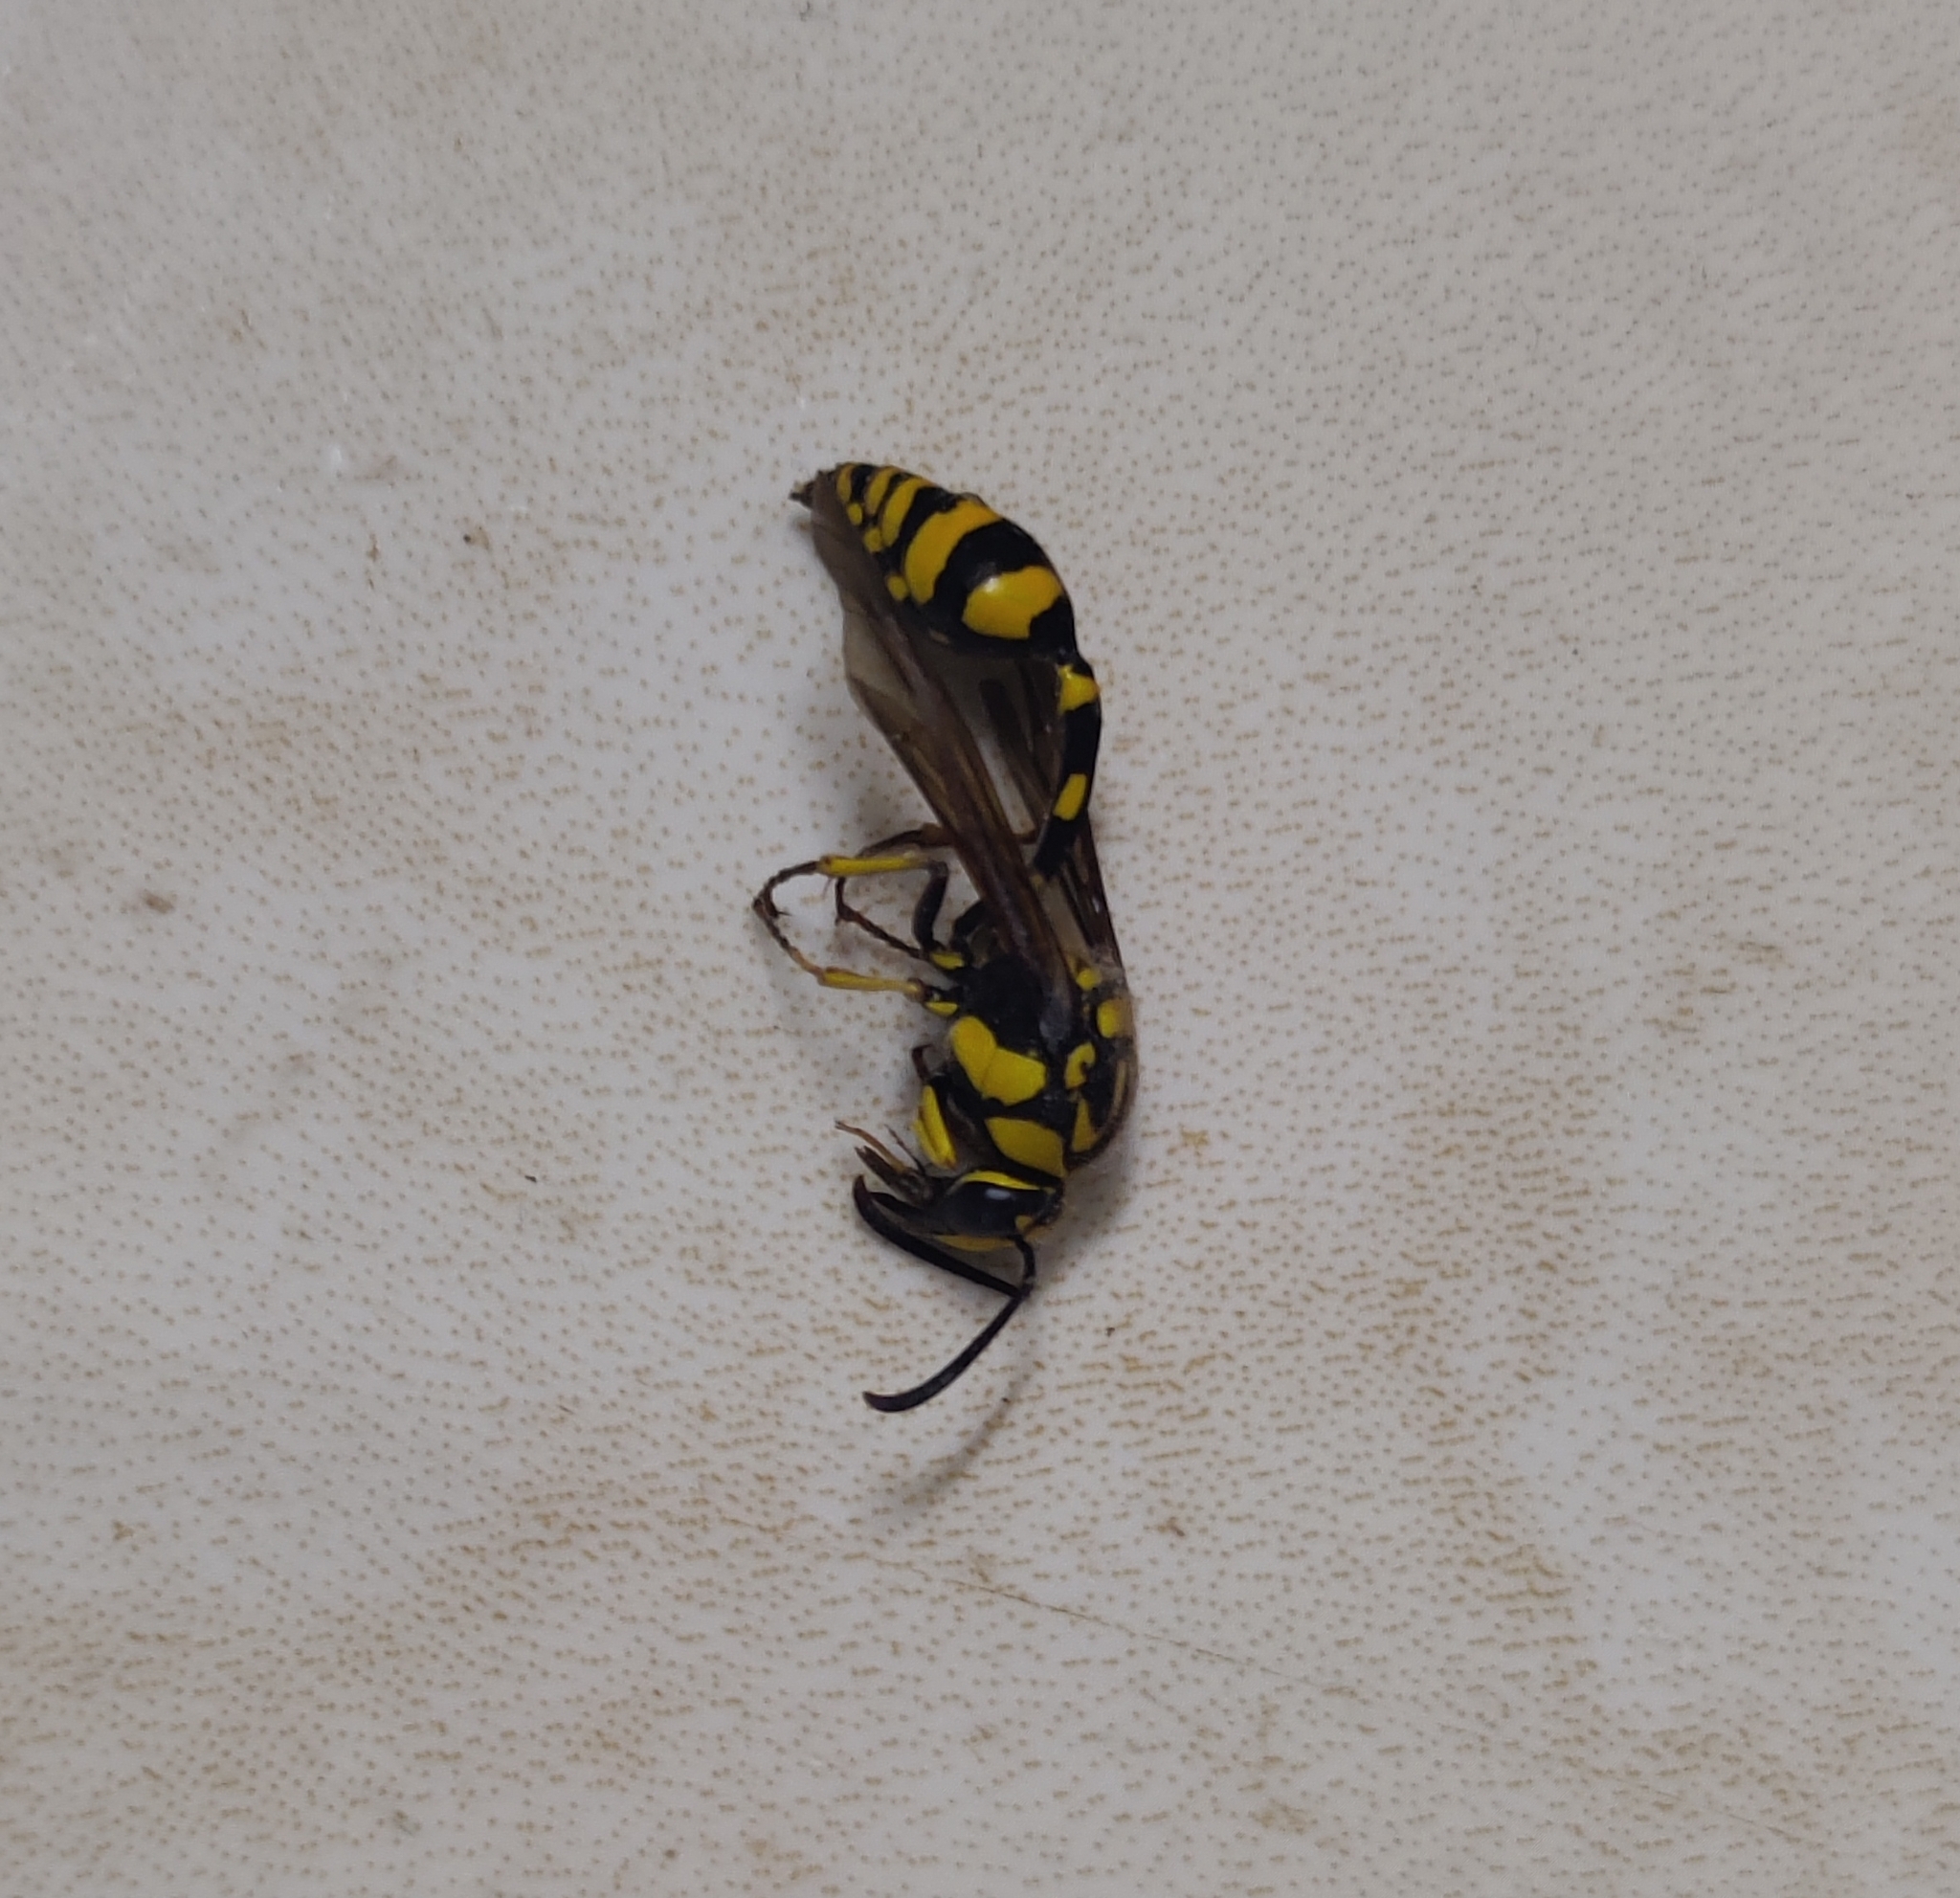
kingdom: Animalia
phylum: Arthropoda
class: Insecta
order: Hymenoptera
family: Eumenidae
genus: Phimenes
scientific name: Phimenes flavopictus
